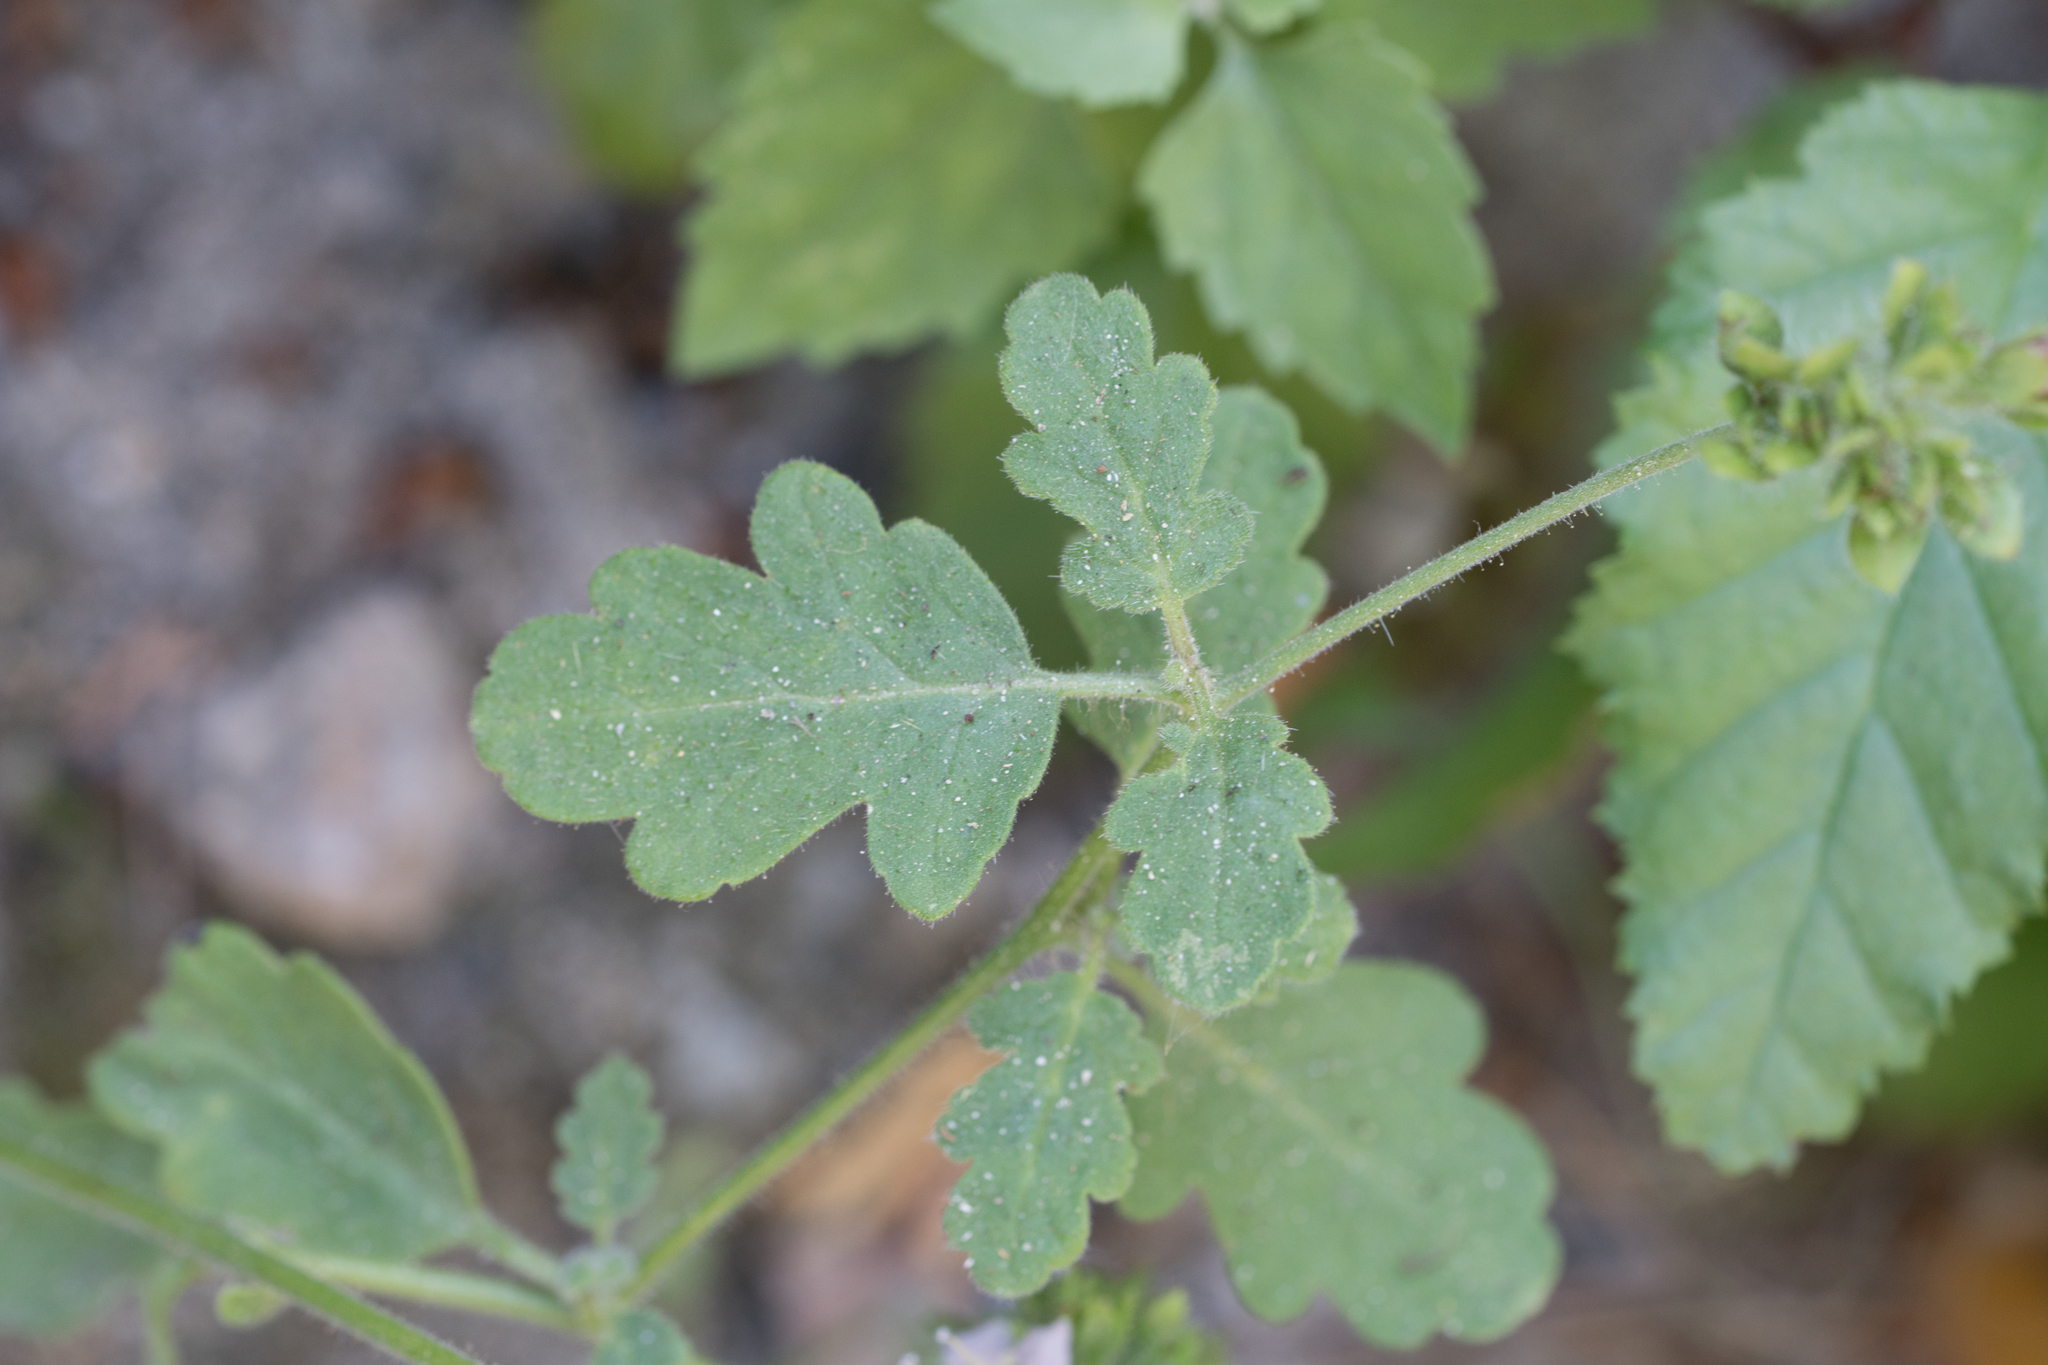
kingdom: Plantae
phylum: Tracheophyta
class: Magnoliopsida
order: Boraginales
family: Hydrophyllaceae
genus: Phacelia
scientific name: Phacelia ramosissima
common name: Branching phacelia
